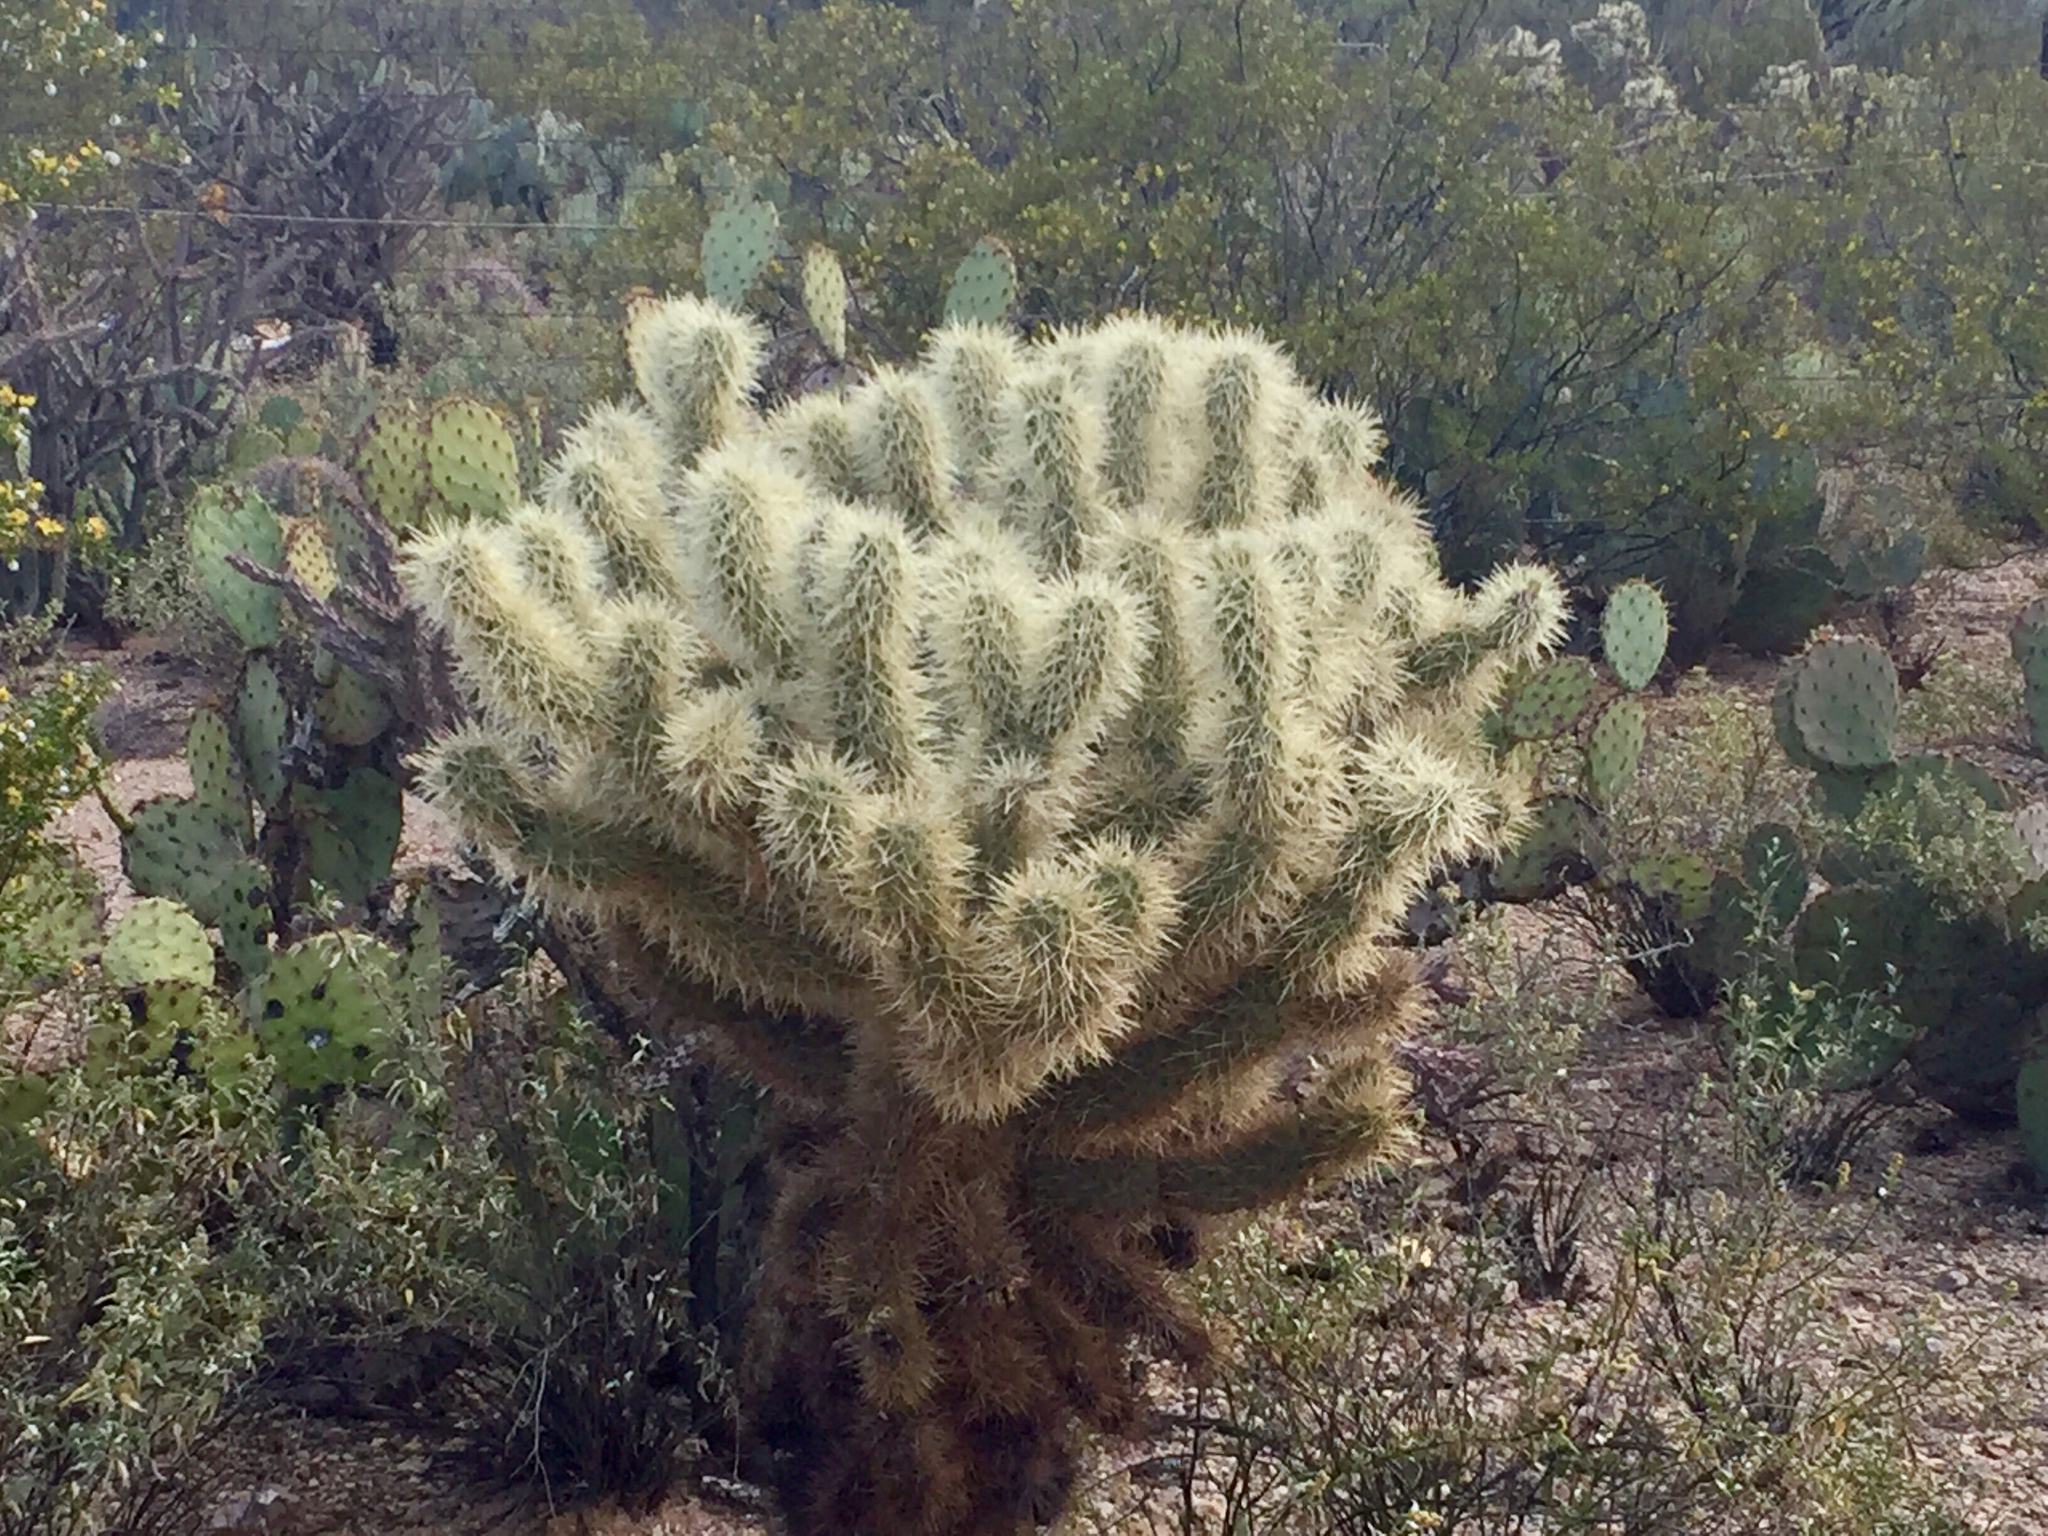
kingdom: Plantae
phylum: Tracheophyta
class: Magnoliopsida
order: Caryophyllales
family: Cactaceae
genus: Cylindropuntia
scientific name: Cylindropuntia fosbergii
